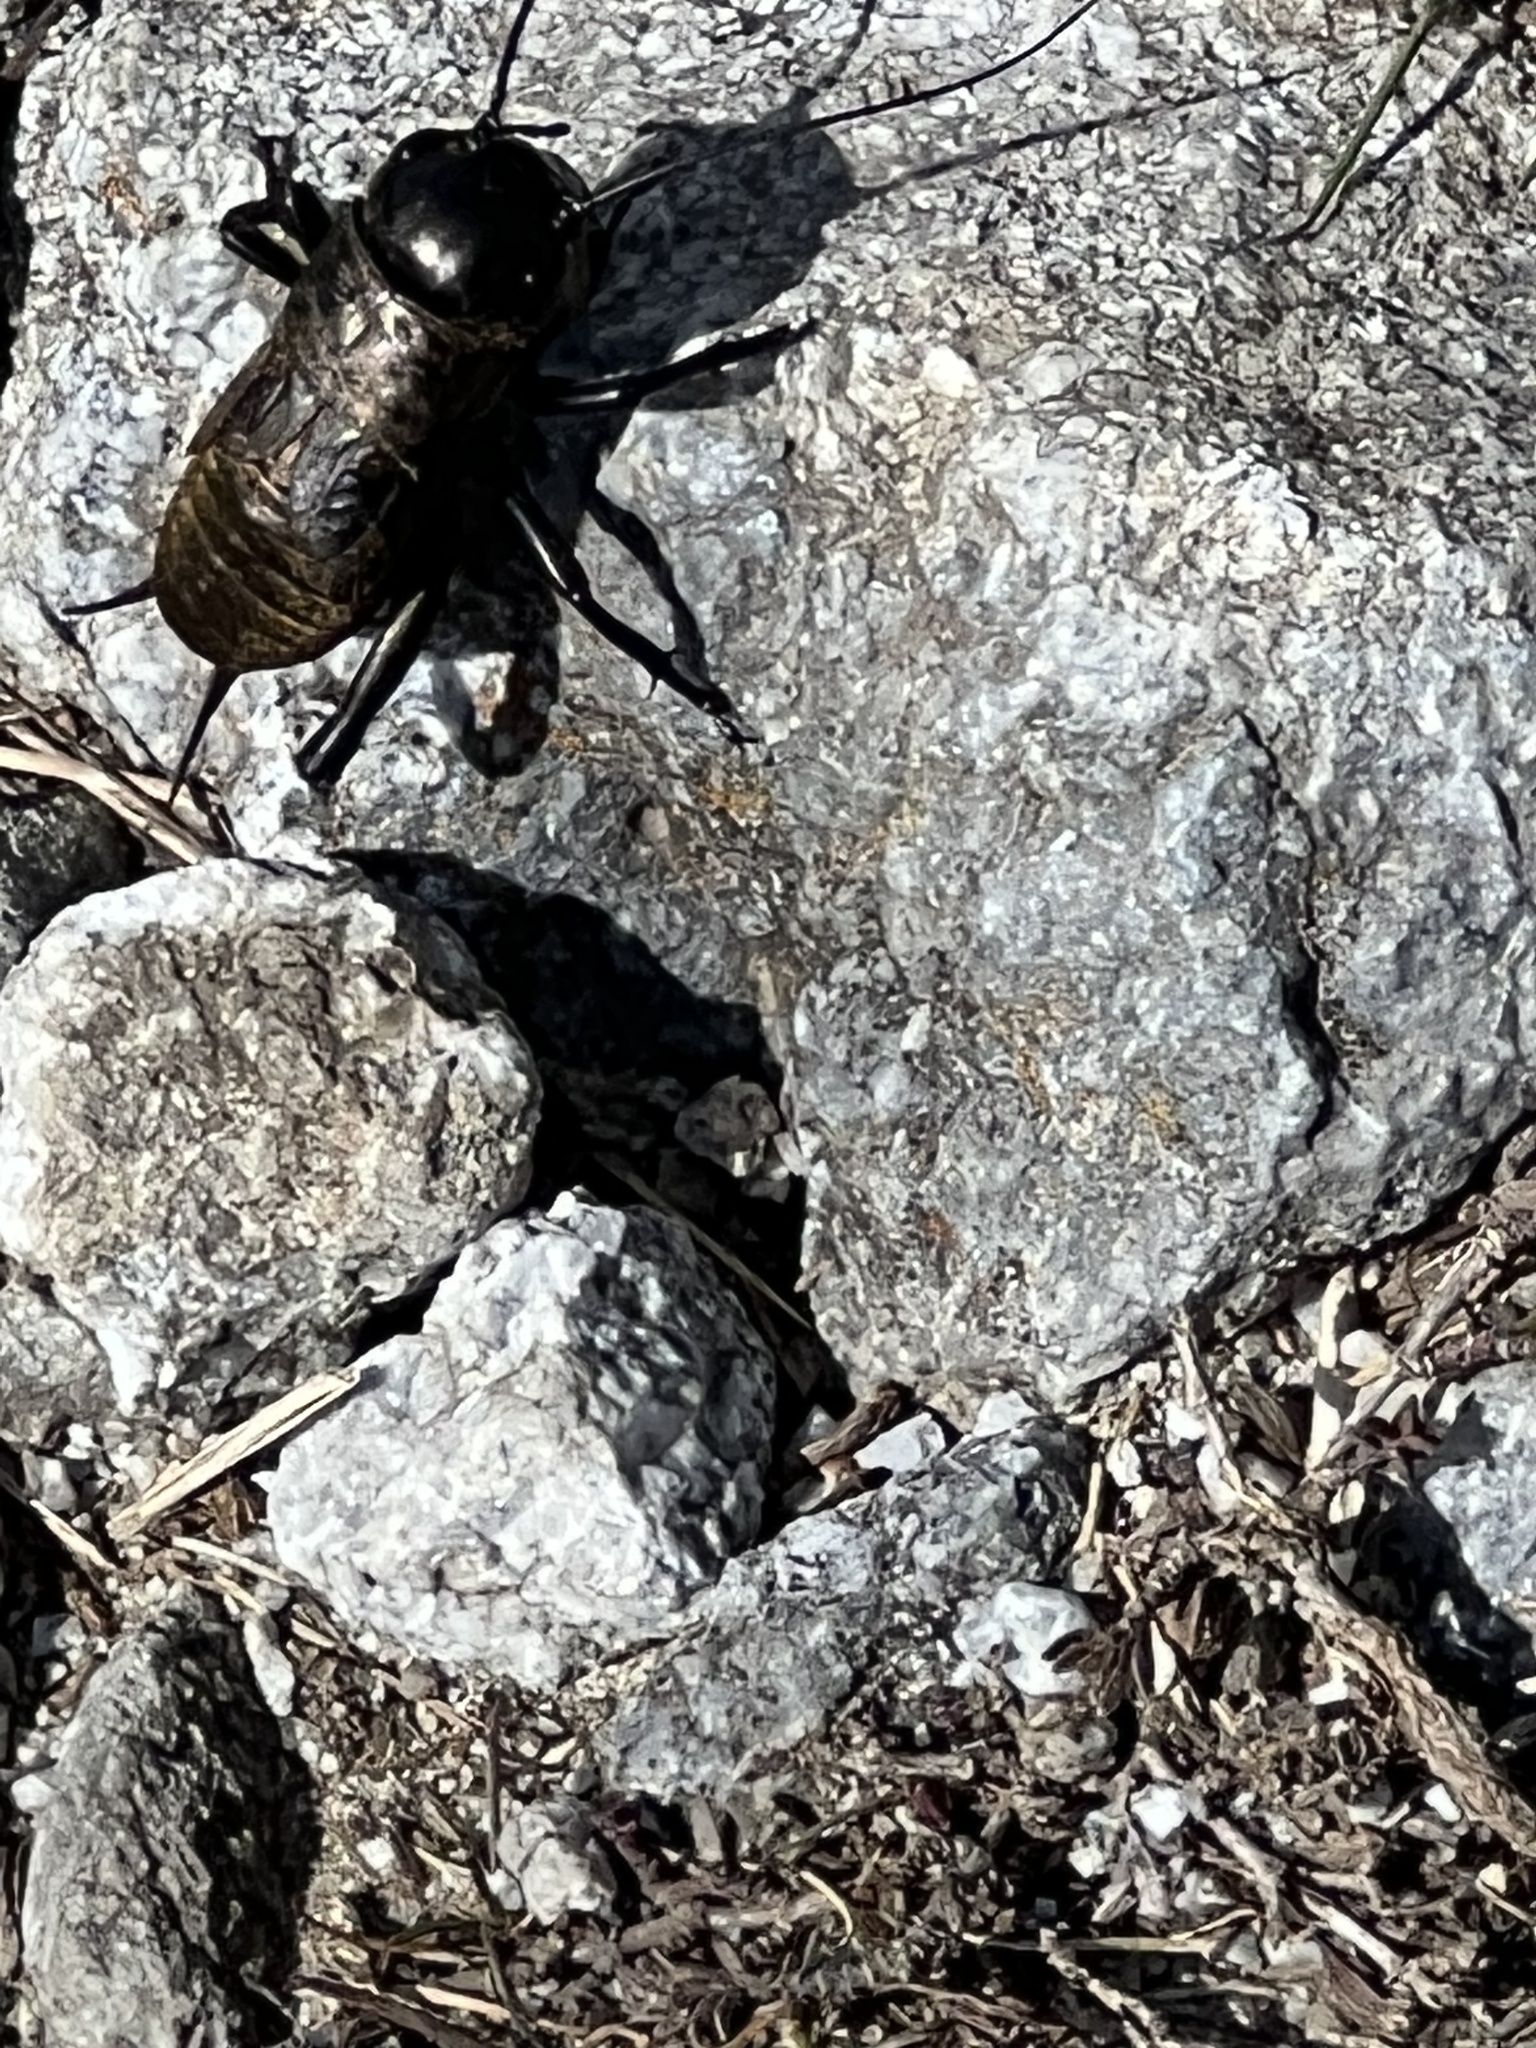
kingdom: Animalia
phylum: Arthropoda
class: Insecta
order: Orthoptera
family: Gryllidae
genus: Gryllus
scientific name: Gryllus campestris
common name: Field cricket
